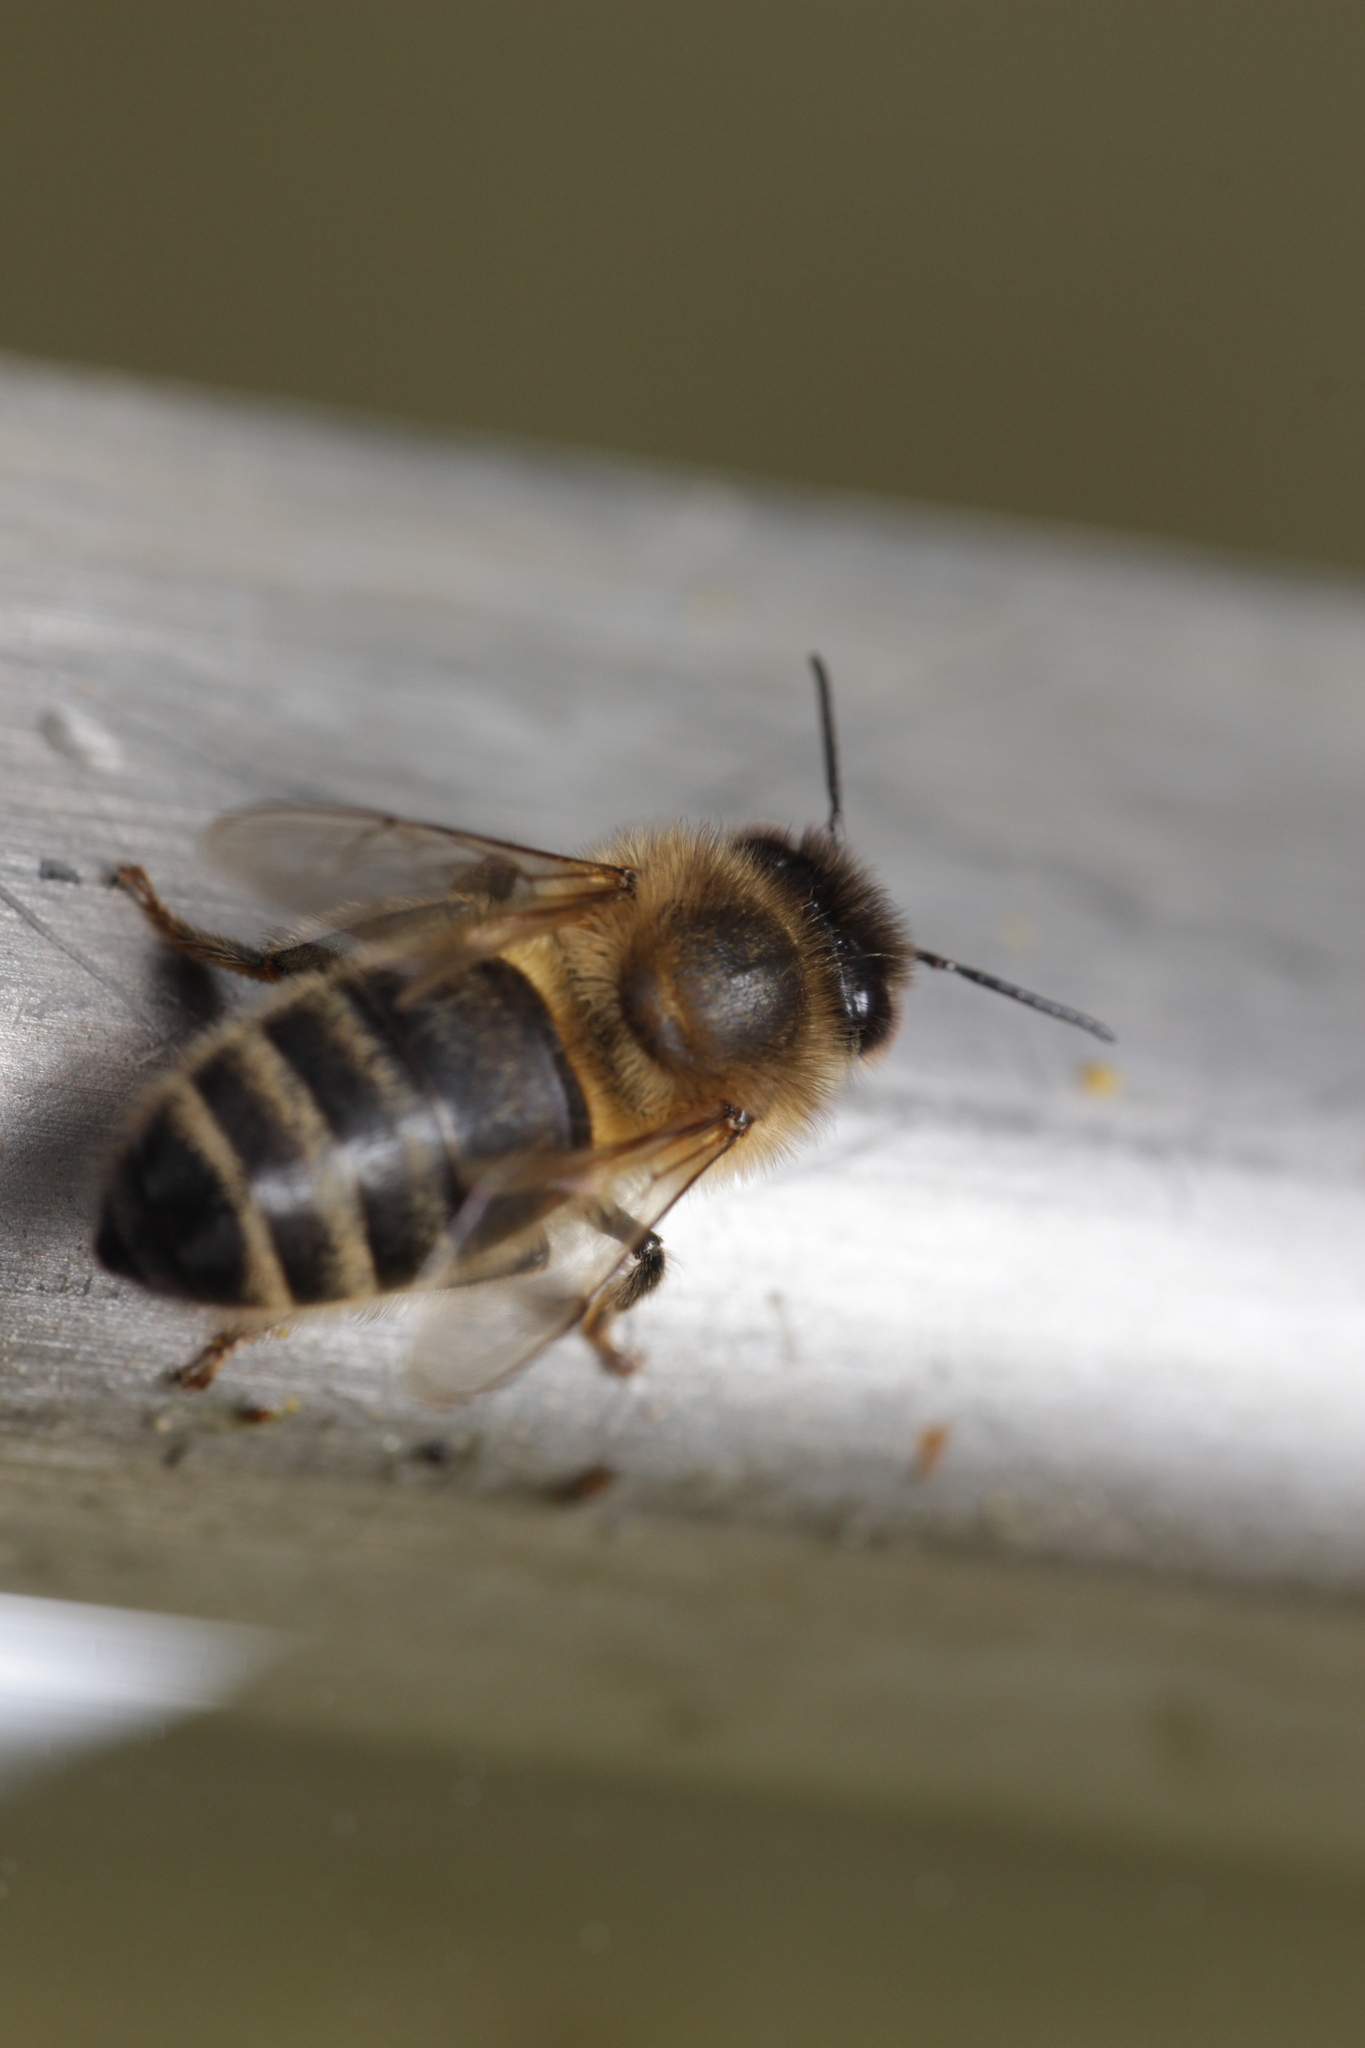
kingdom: Animalia
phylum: Arthropoda
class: Insecta
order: Hymenoptera
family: Apidae
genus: Apis
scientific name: Apis mellifera
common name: Honey bee
